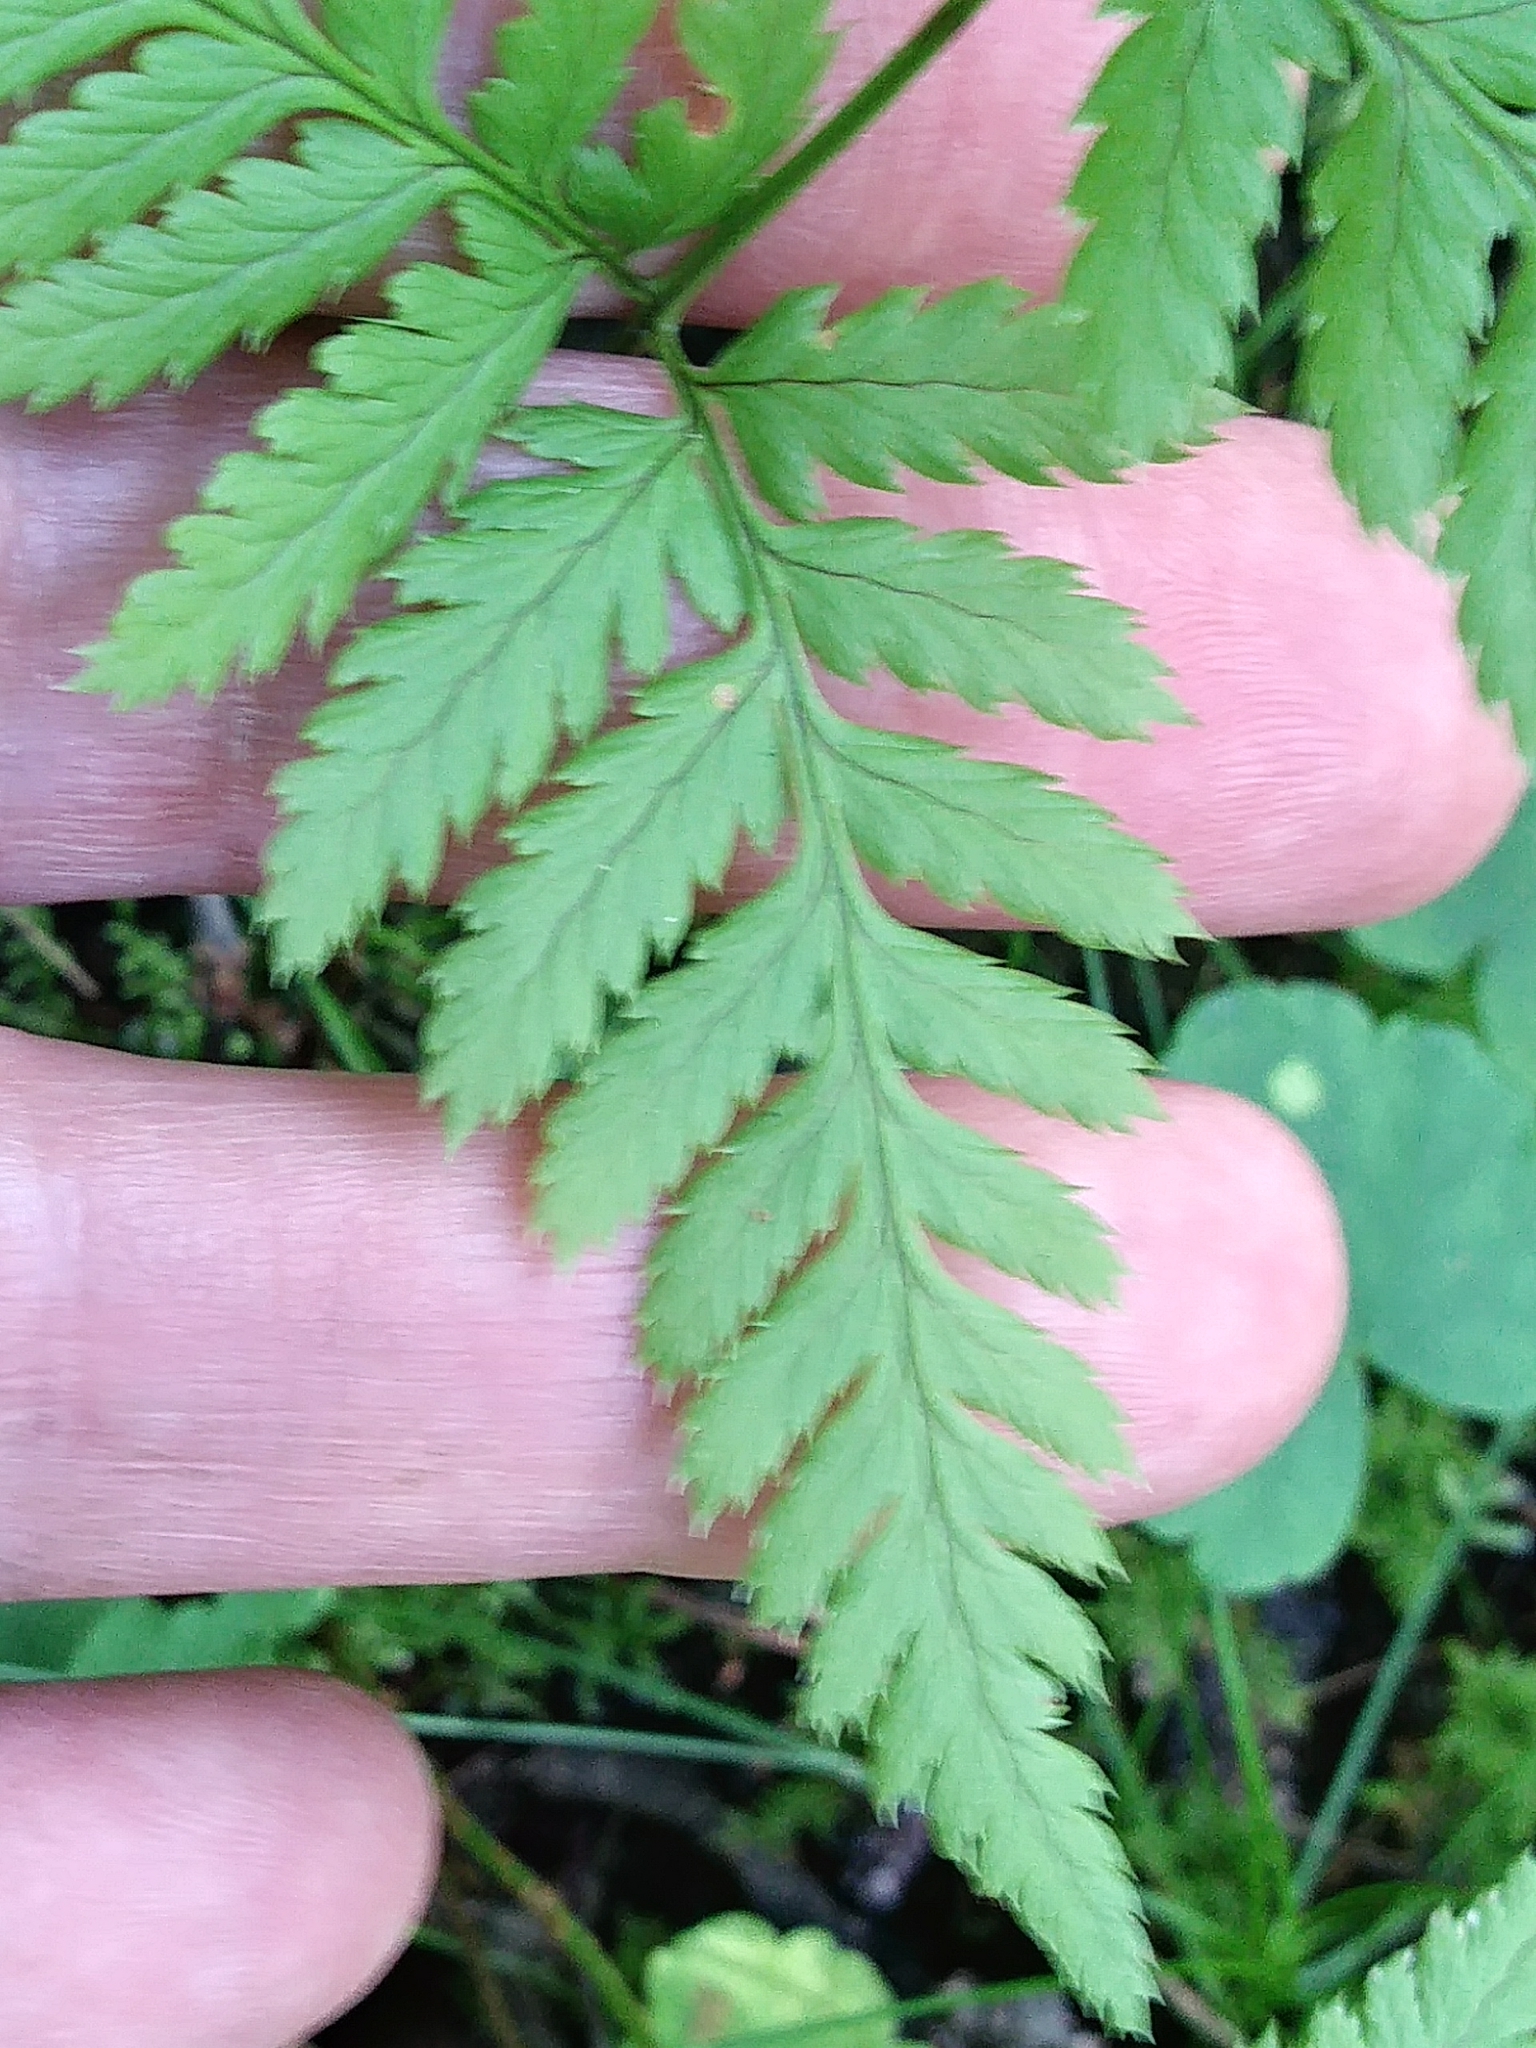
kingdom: Plantae
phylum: Tracheophyta
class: Polypodiopsida
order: Polypodiales
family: Dryopteridaceae
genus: Dryopteris
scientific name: Dryopteris carthusiana
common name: Narrow buckler-fern
